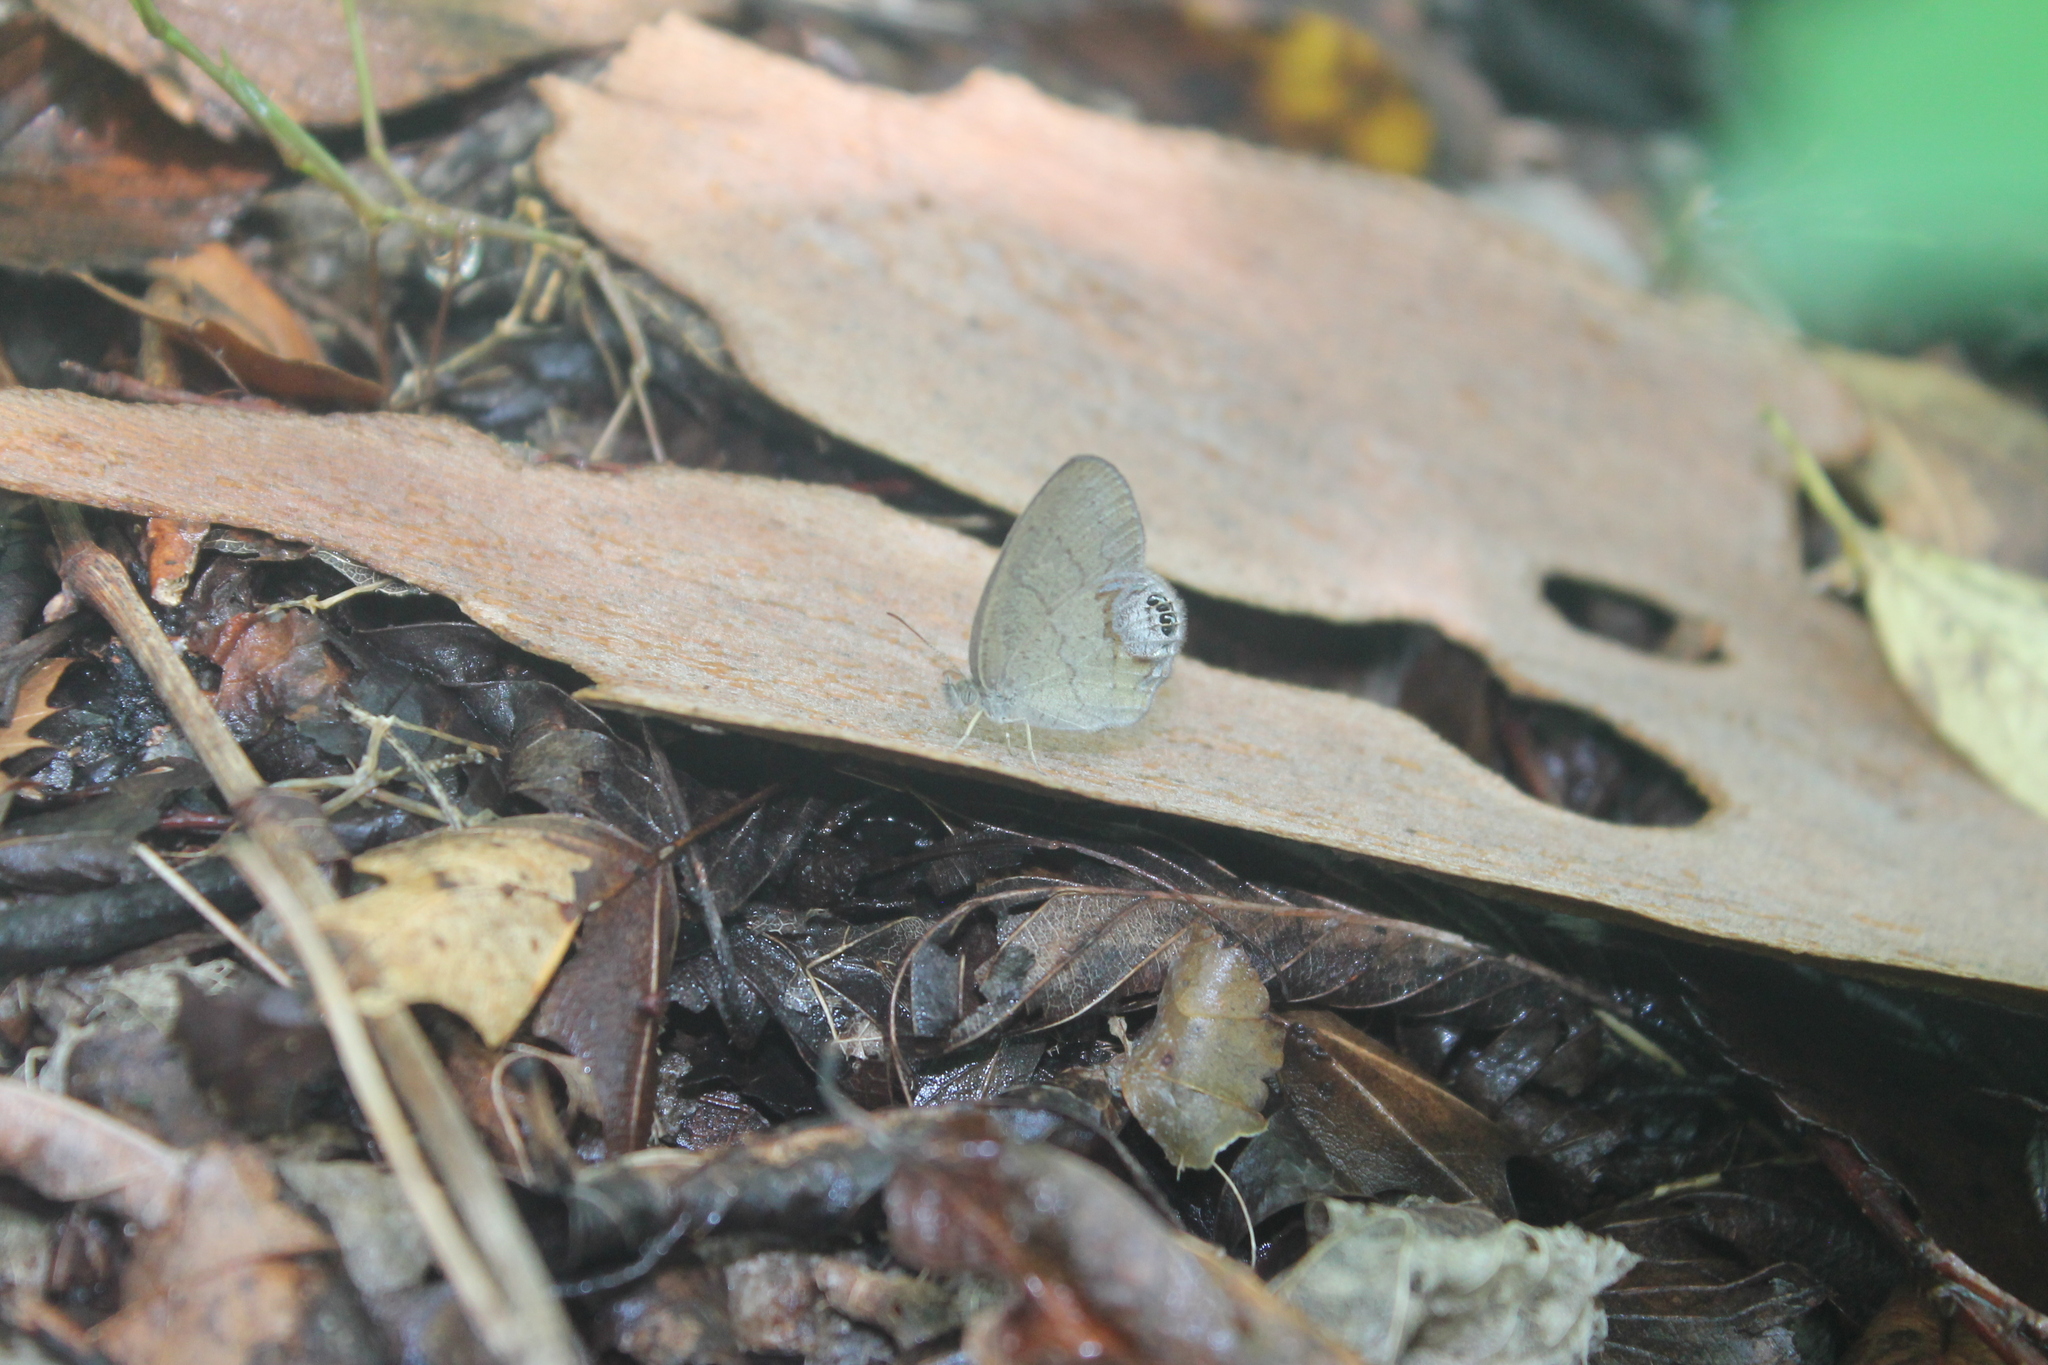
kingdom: Animalia
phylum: Arthropoda
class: Insecta
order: Lepidoptera
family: Nymphalidae
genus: Euptychia
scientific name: Euptychia cornelius
